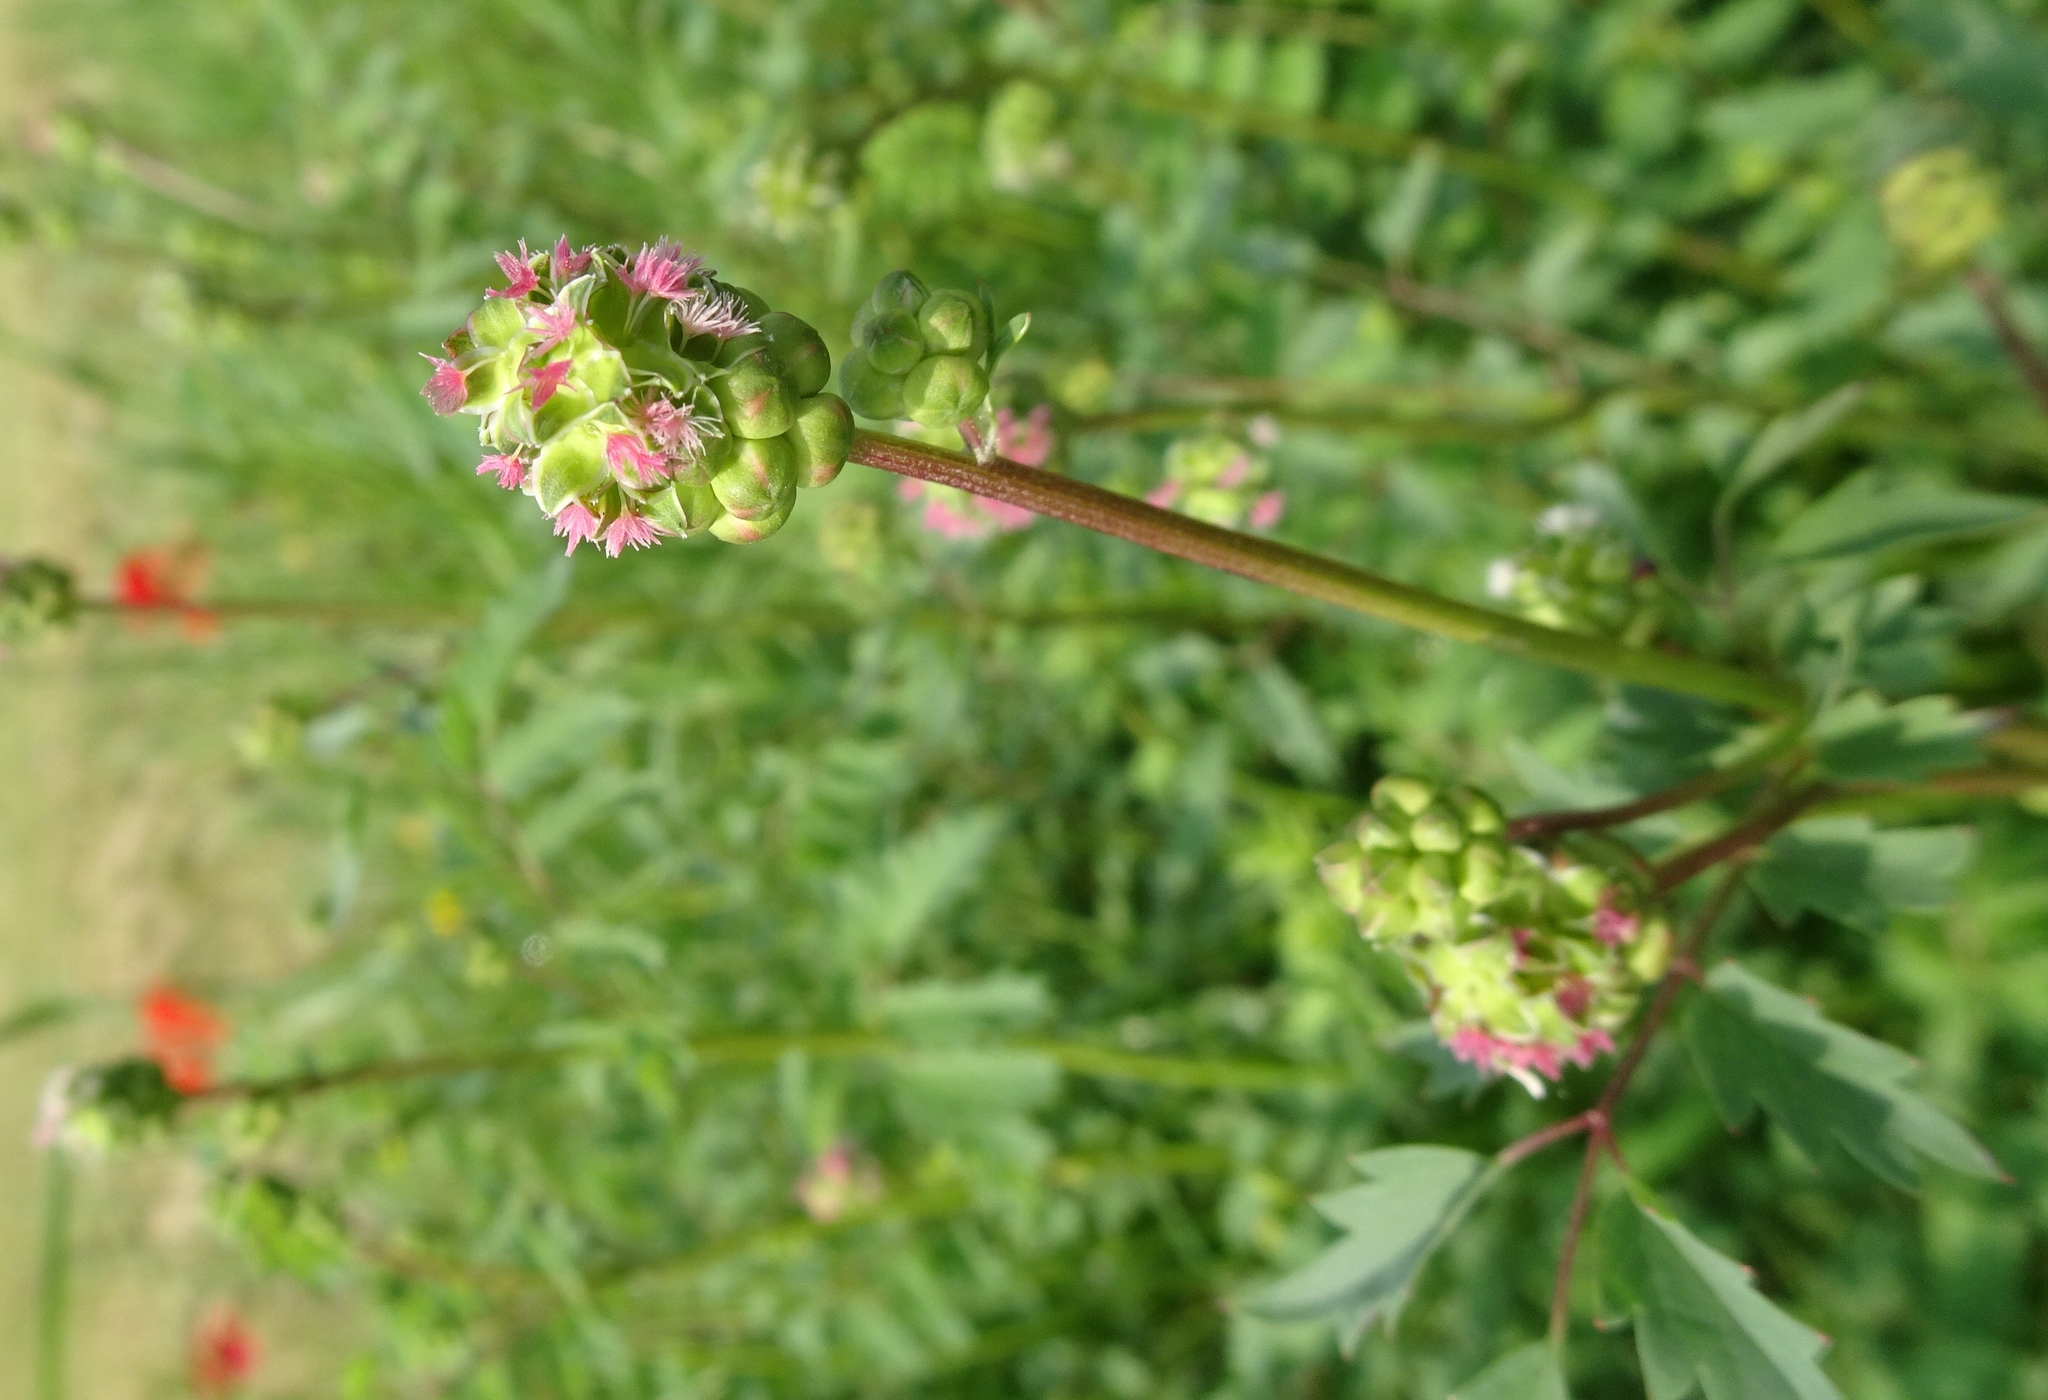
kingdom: Plantae
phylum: Tracheophyta
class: Magnoliopsida
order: Rosales
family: Rosaceae
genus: Poterium
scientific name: Poterium sanguisorba
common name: Salad burnet
